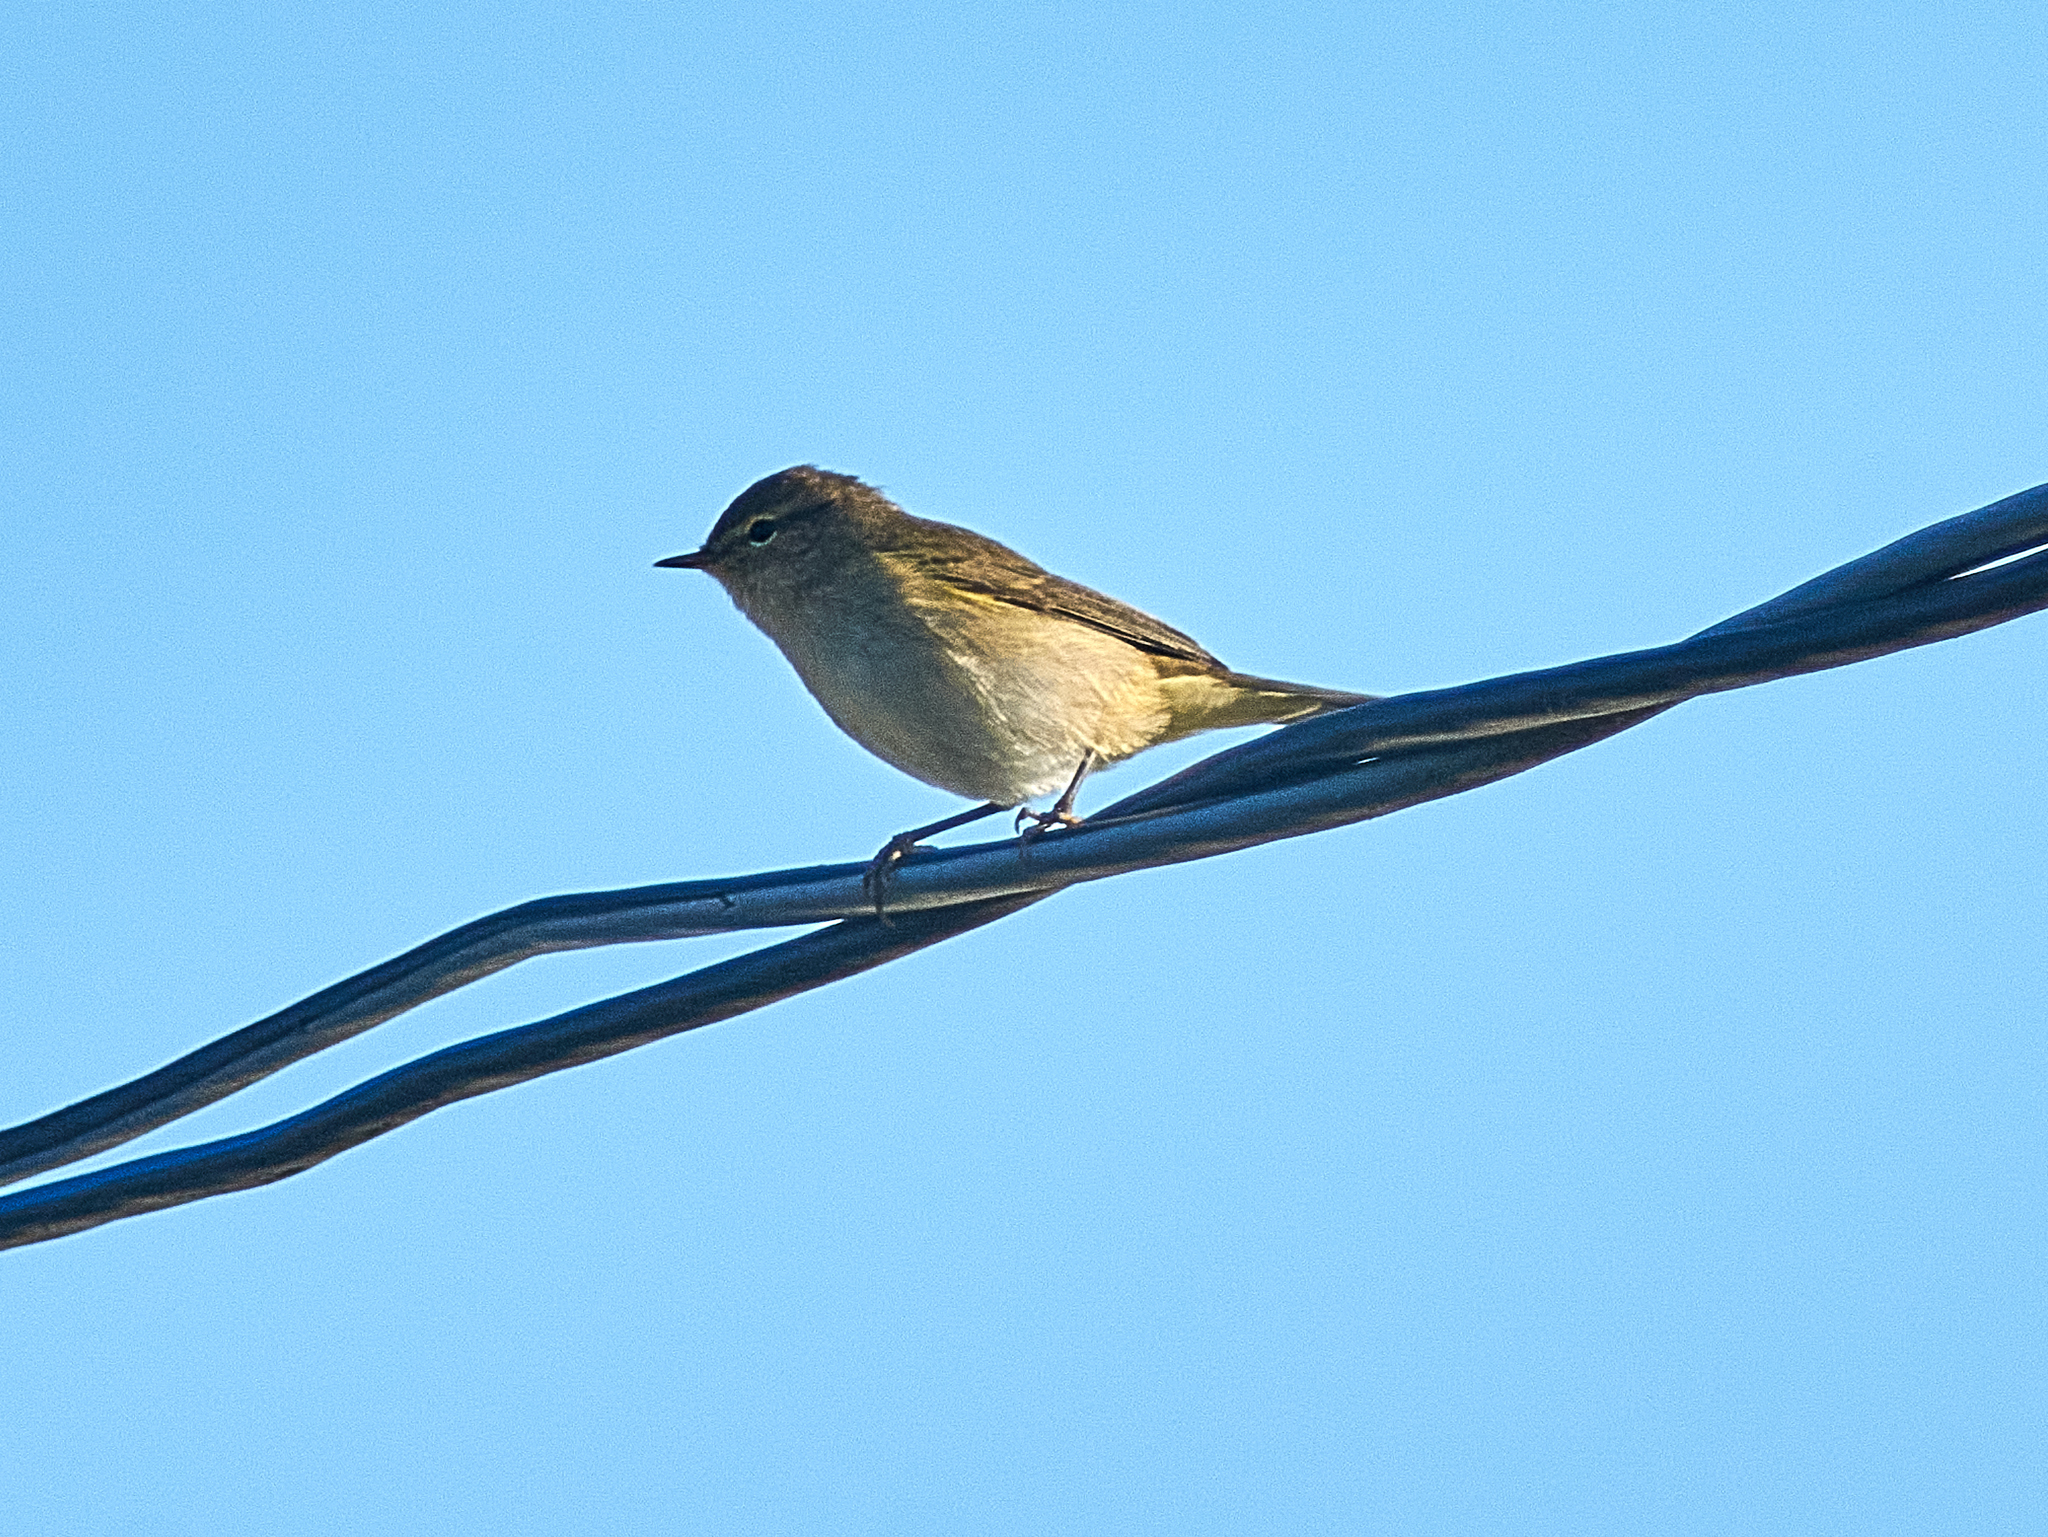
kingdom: Animalia
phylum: Chordata
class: Aves
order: Passeriformes
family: Phylloscopidae
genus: Phylloscopus
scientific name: Phylloscopus collybita
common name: Common chiffchaff
